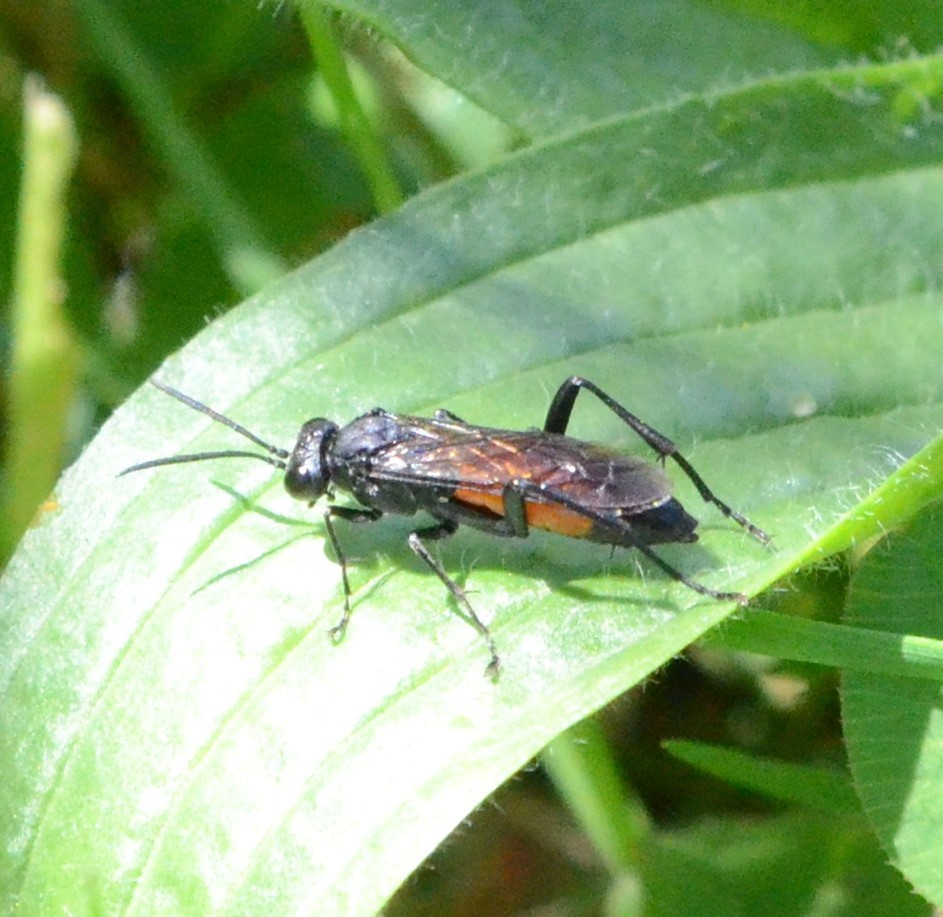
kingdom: Animalia
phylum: Arthropoda
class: Insecta
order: Hymenoptera
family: Tenthredinidae
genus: Macrophya
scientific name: Macrophya annulata
